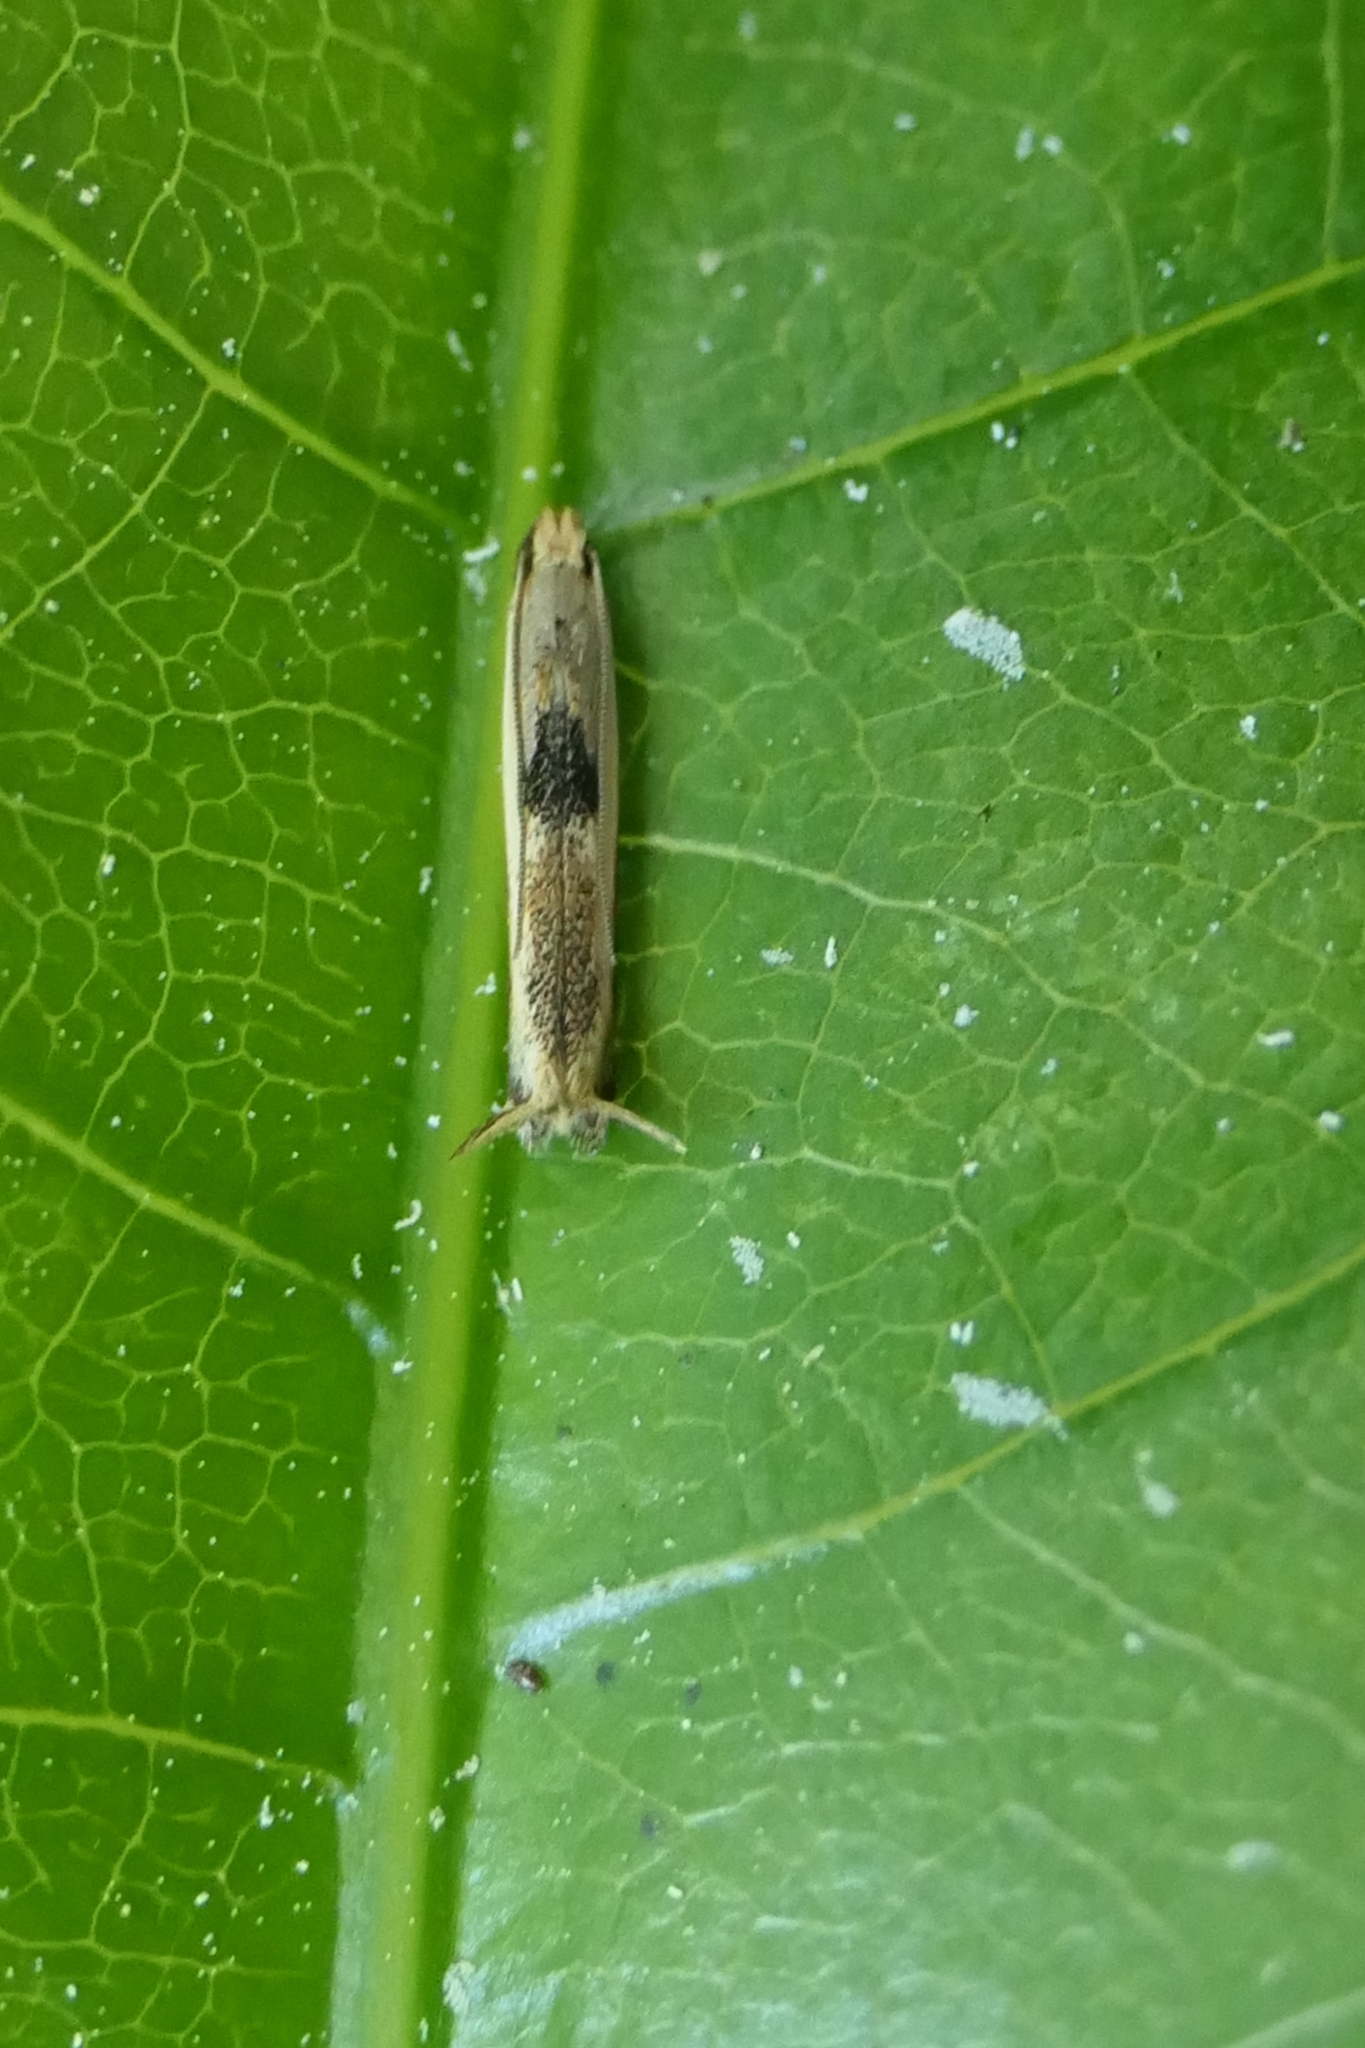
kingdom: Animalia
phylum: Arthropoda
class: Insecta
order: Lepidoptera
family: Tineidae
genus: Erechthias
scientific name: Erechthias charadrota
